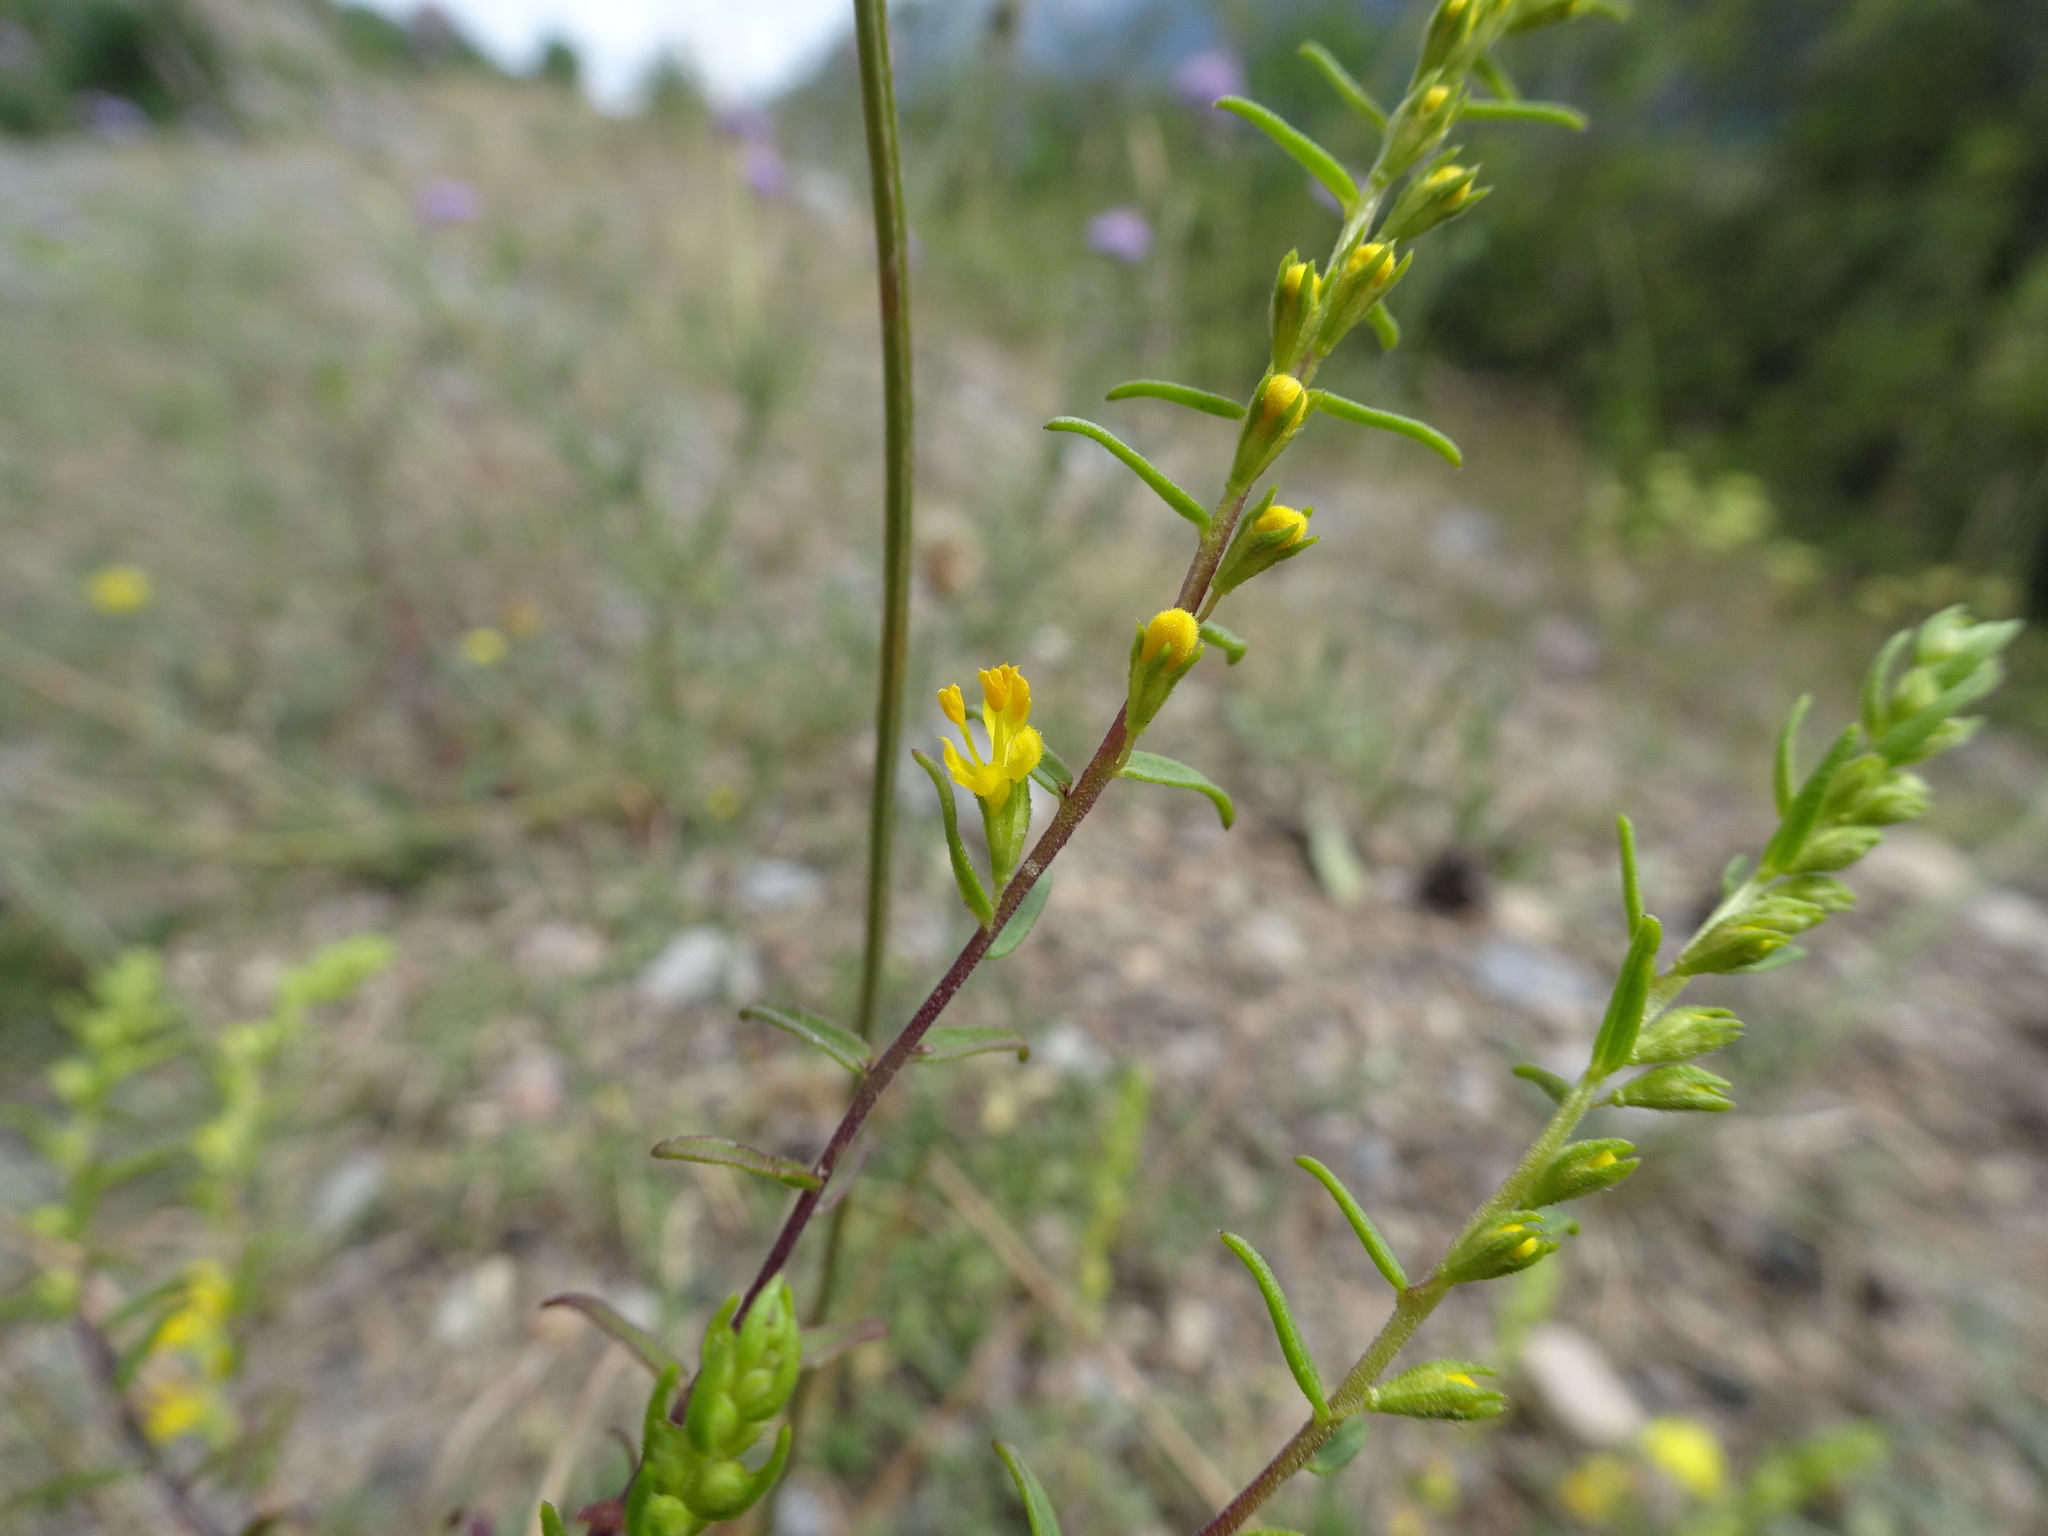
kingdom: Plantae
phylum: Tracheophyta
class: Magnoliopsida
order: Lamiales
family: Orobanchaceae
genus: Odontites
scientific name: Odontites luteus
